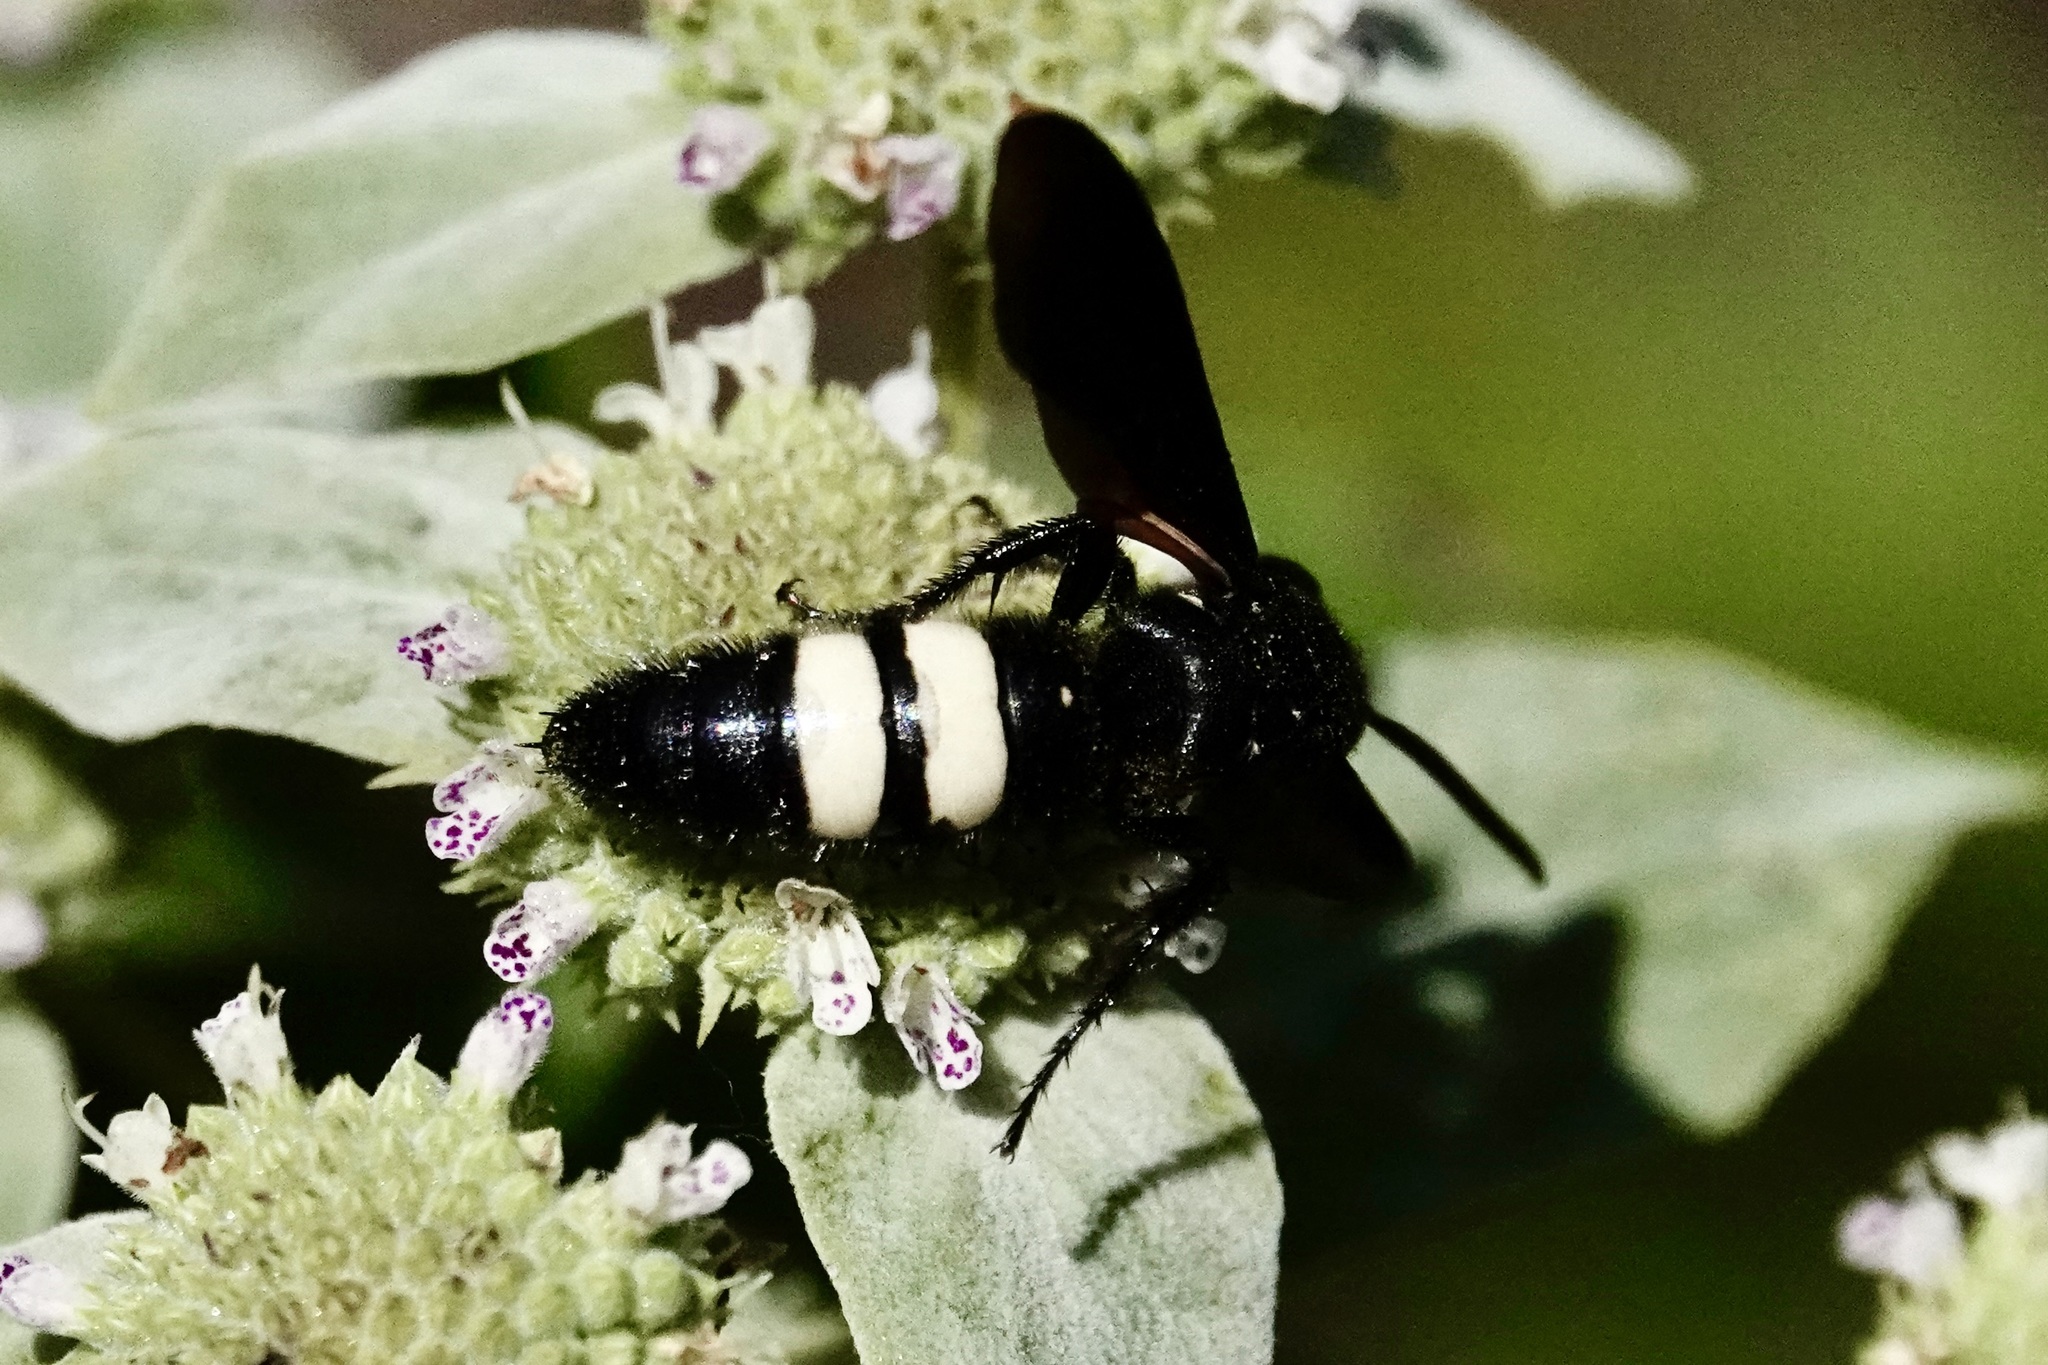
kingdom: Animalia
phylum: Arthropoda
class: Insecta
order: Hymenoptera
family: Scoliidae
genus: Scolia
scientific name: Scolia bicincta
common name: Double-banded scoliid wasp
